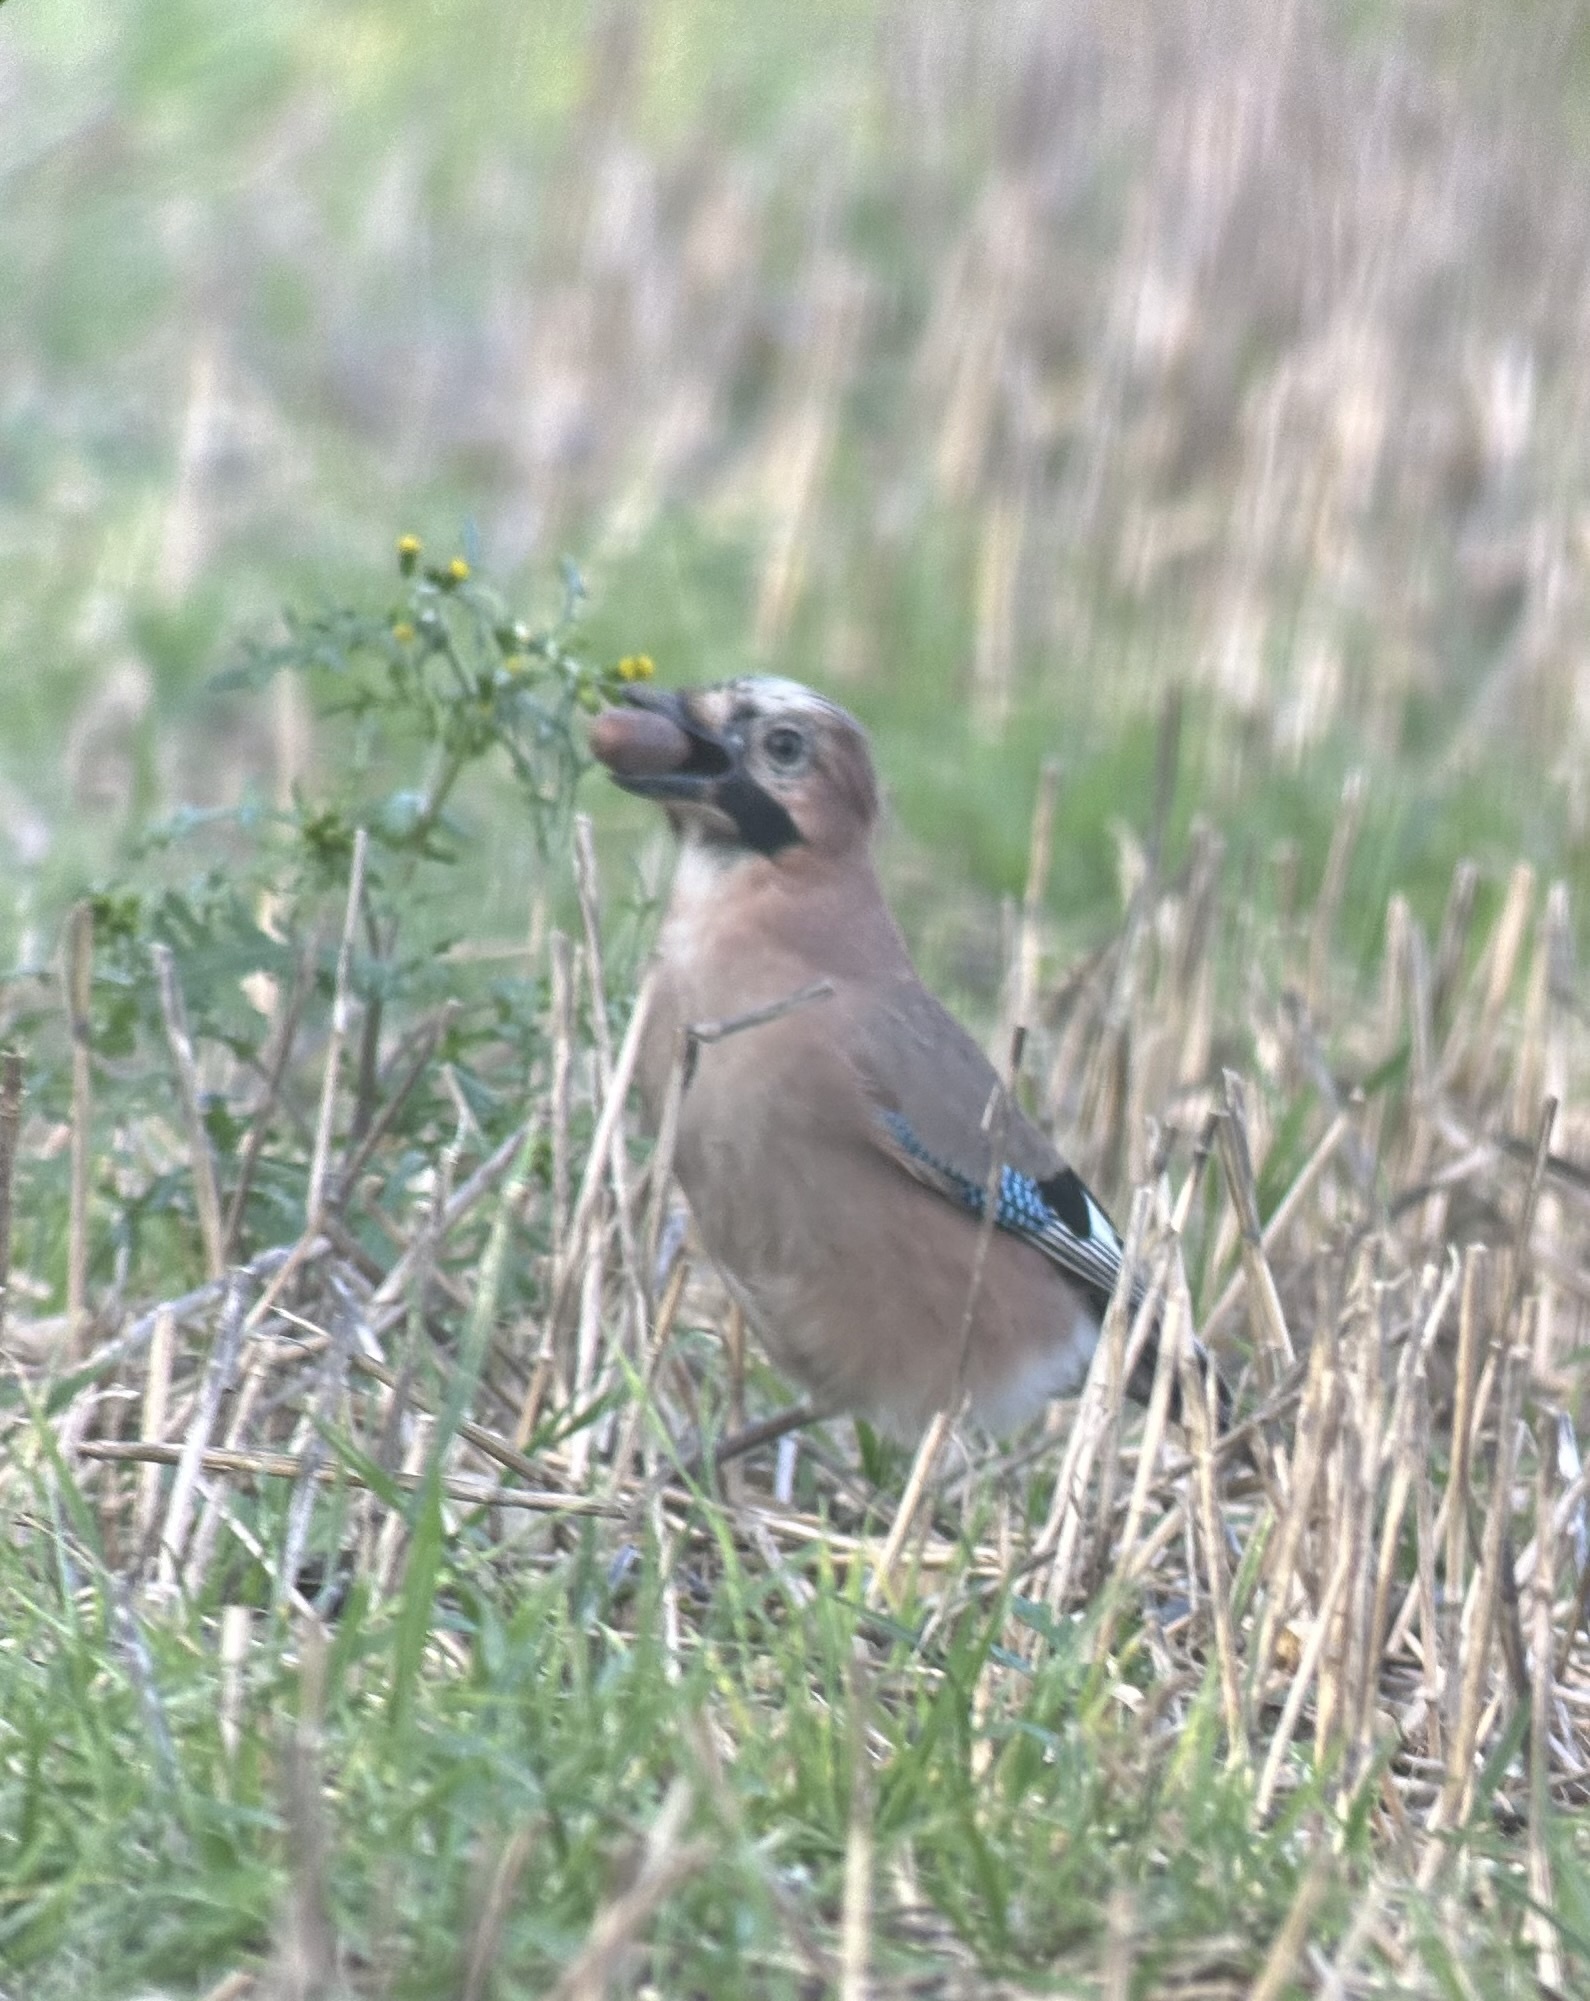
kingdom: Animalia
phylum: Chordata
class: Aves
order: Passeriformes
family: Corvidae
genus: Garrulus
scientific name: Garrulus glandarius
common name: Eurasian jay
